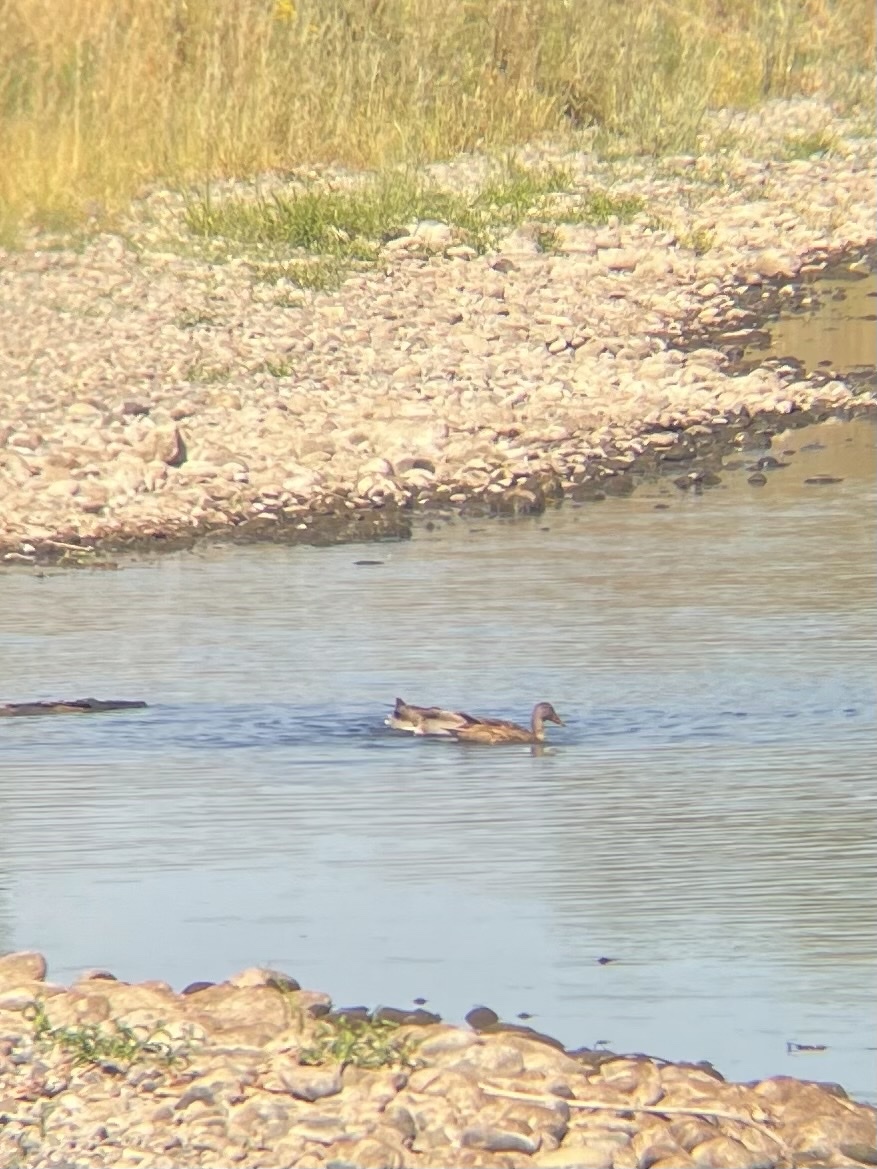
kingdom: Animalia
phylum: Chordata
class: Aves
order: Anseriformes
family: Anatidae
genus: Anas
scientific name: Anas platyrhynchos
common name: Mallard
